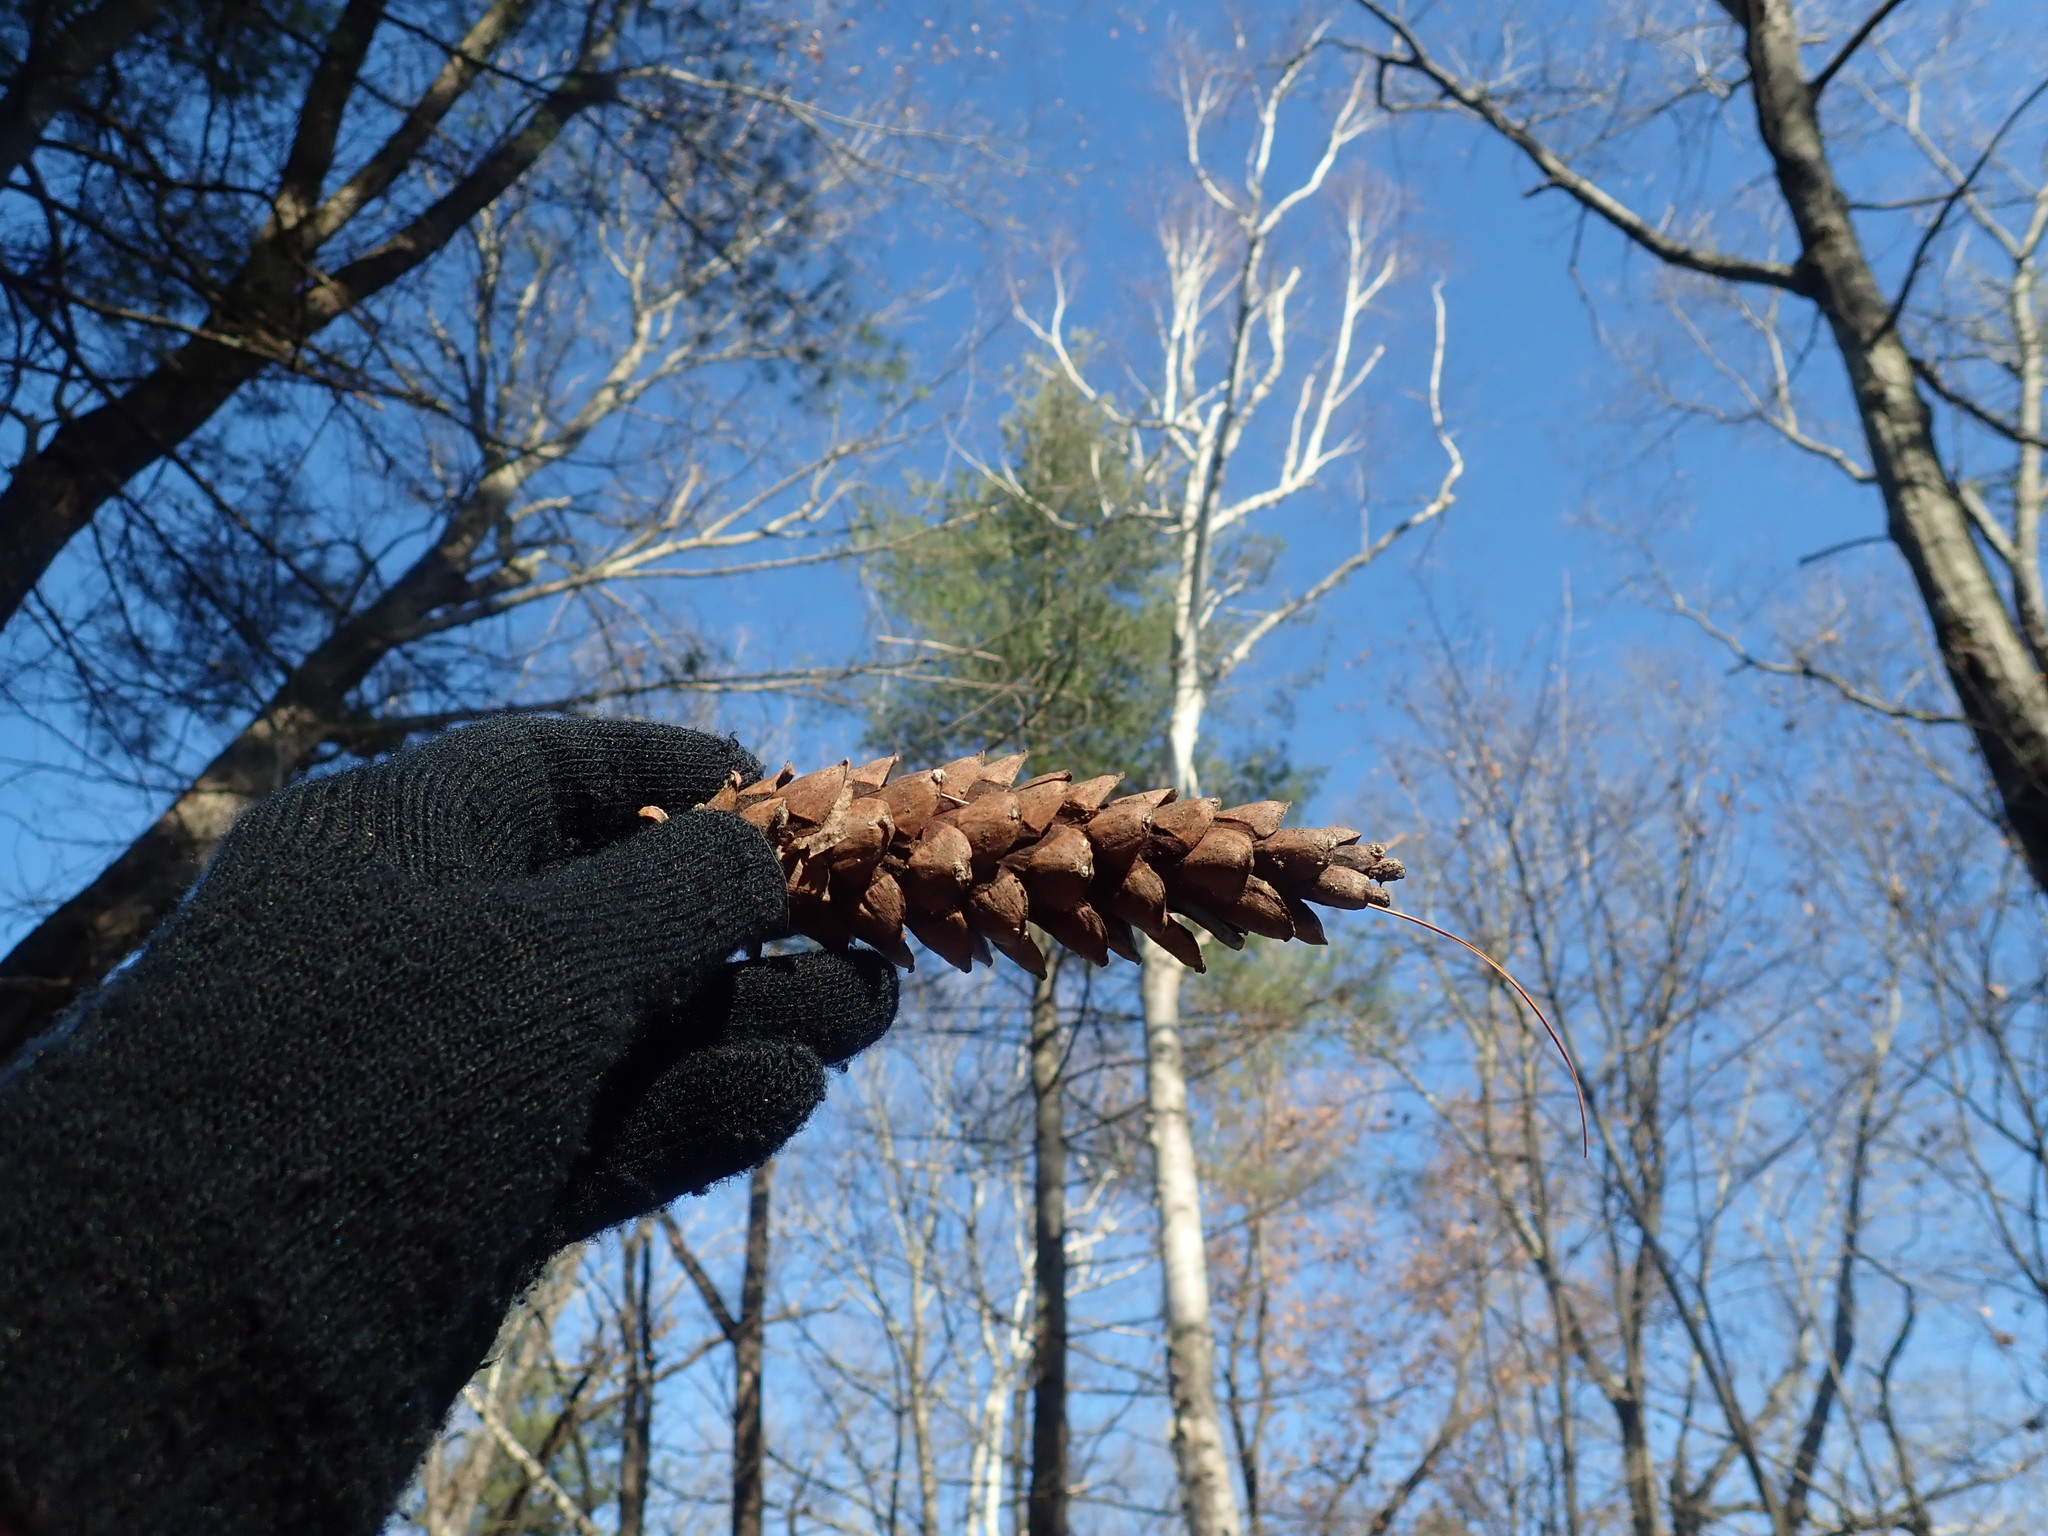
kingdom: Plantae
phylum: Tracheophyta
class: Pinopsida
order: Pinales
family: Pinaceae
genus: Pinus
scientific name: Pinus strobus
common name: Weymouth pine
